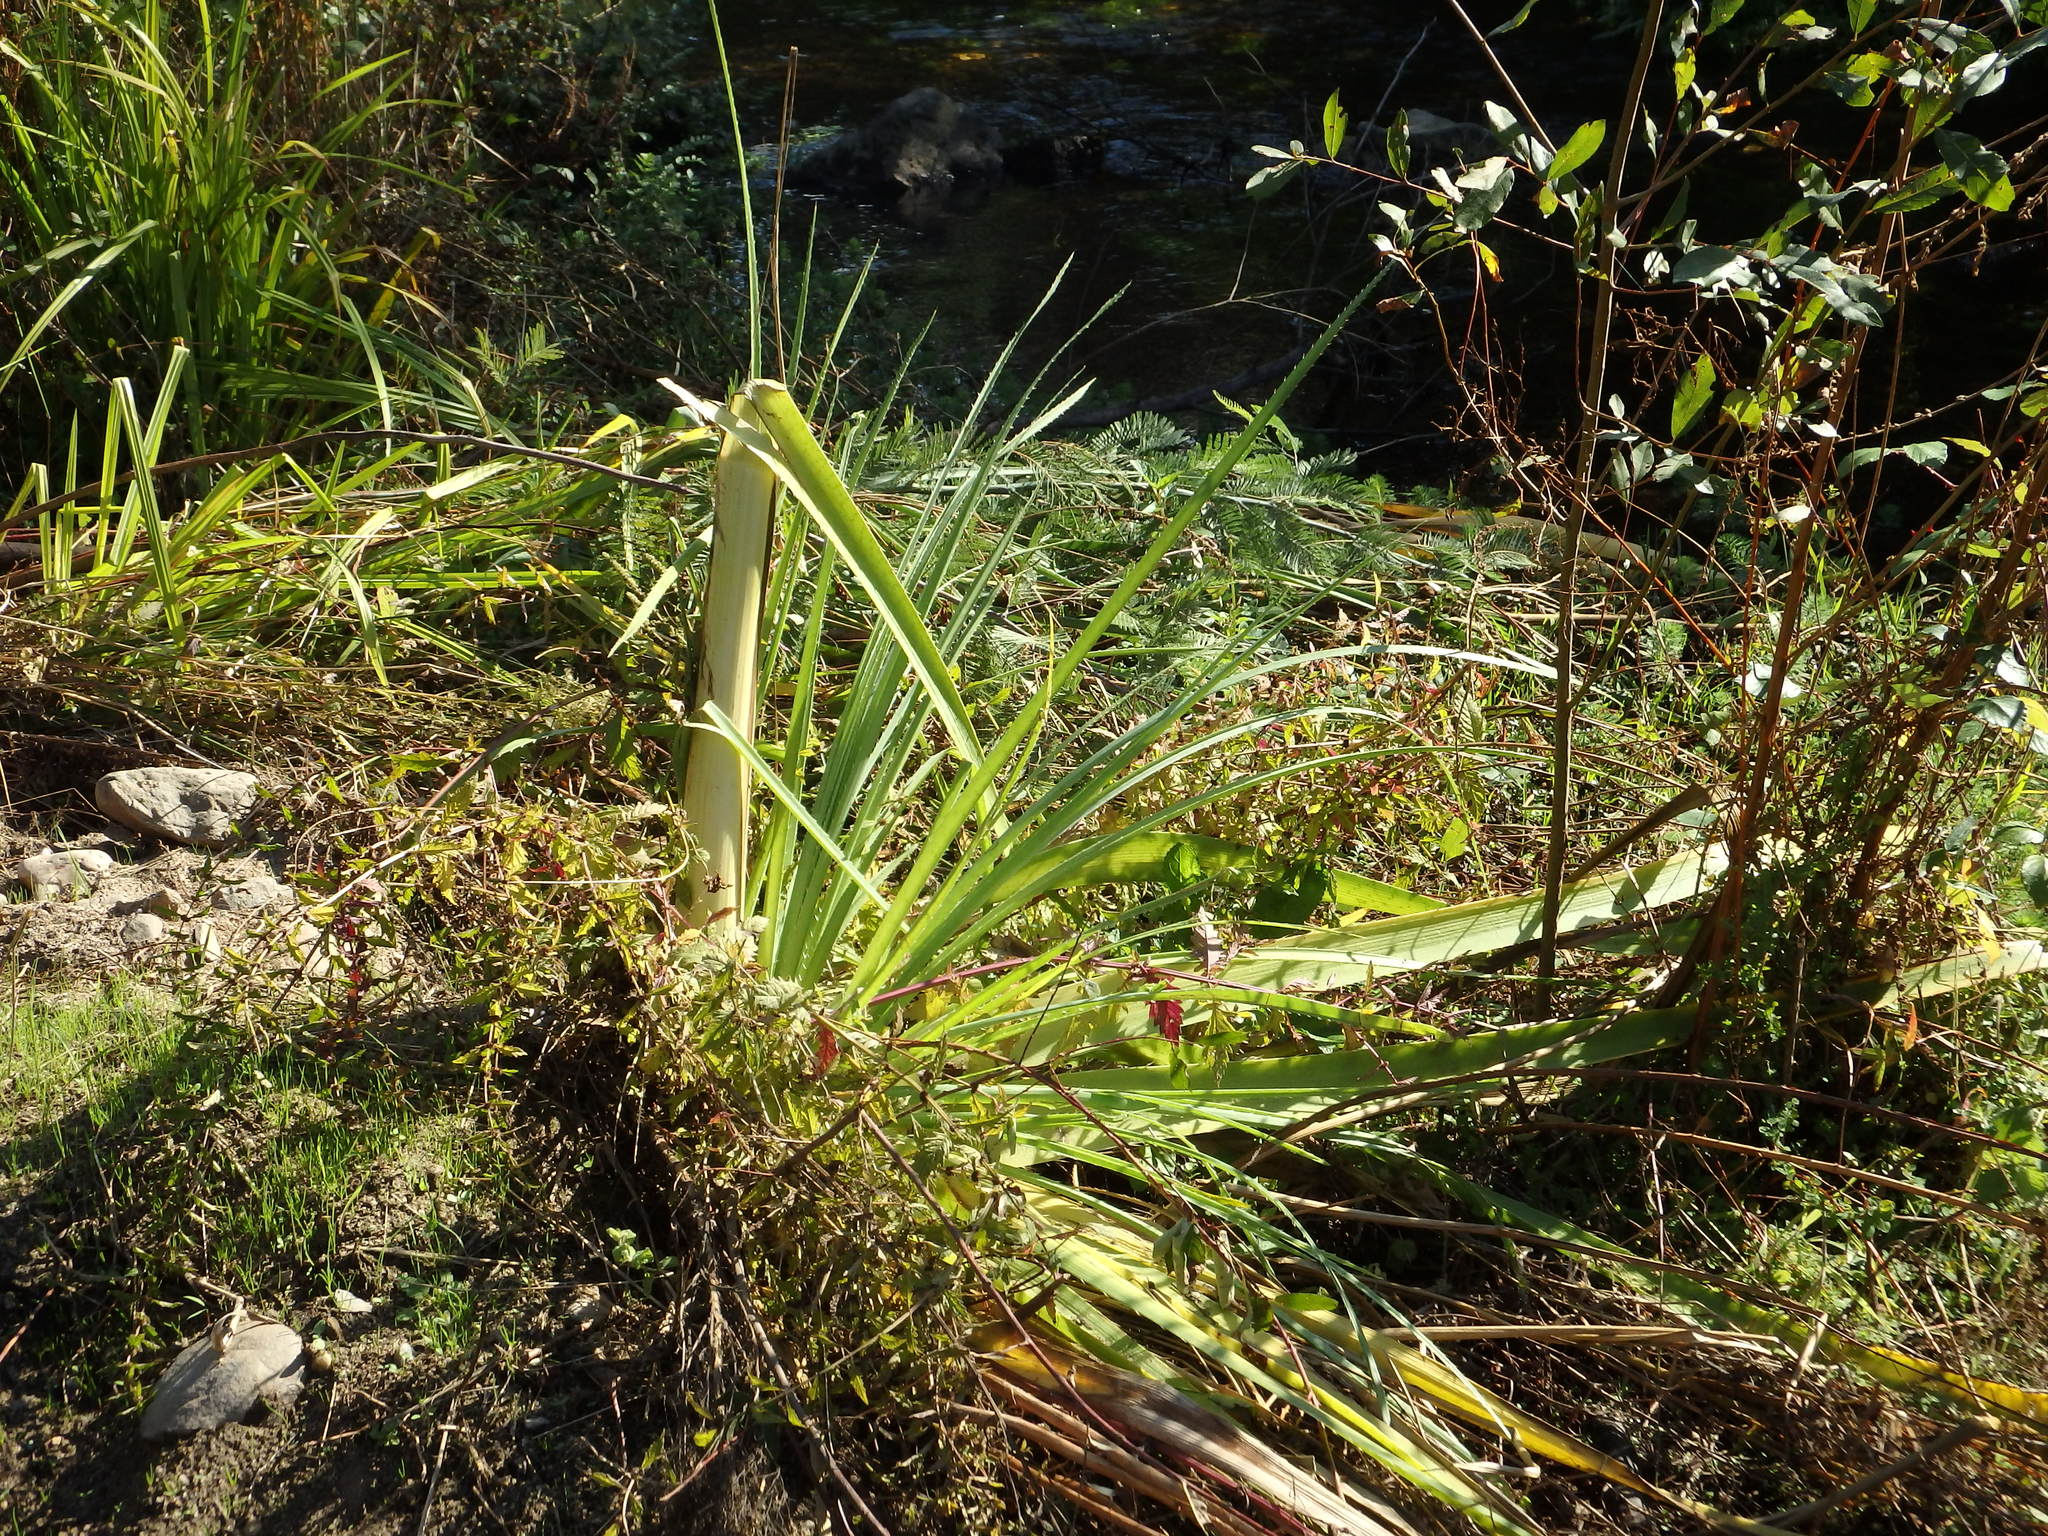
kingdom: Plantae
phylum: Tracheophyta
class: Magnoliopsida
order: Apiales
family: Apiaceae
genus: Eryngium
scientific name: Eryngium pandanifolium
